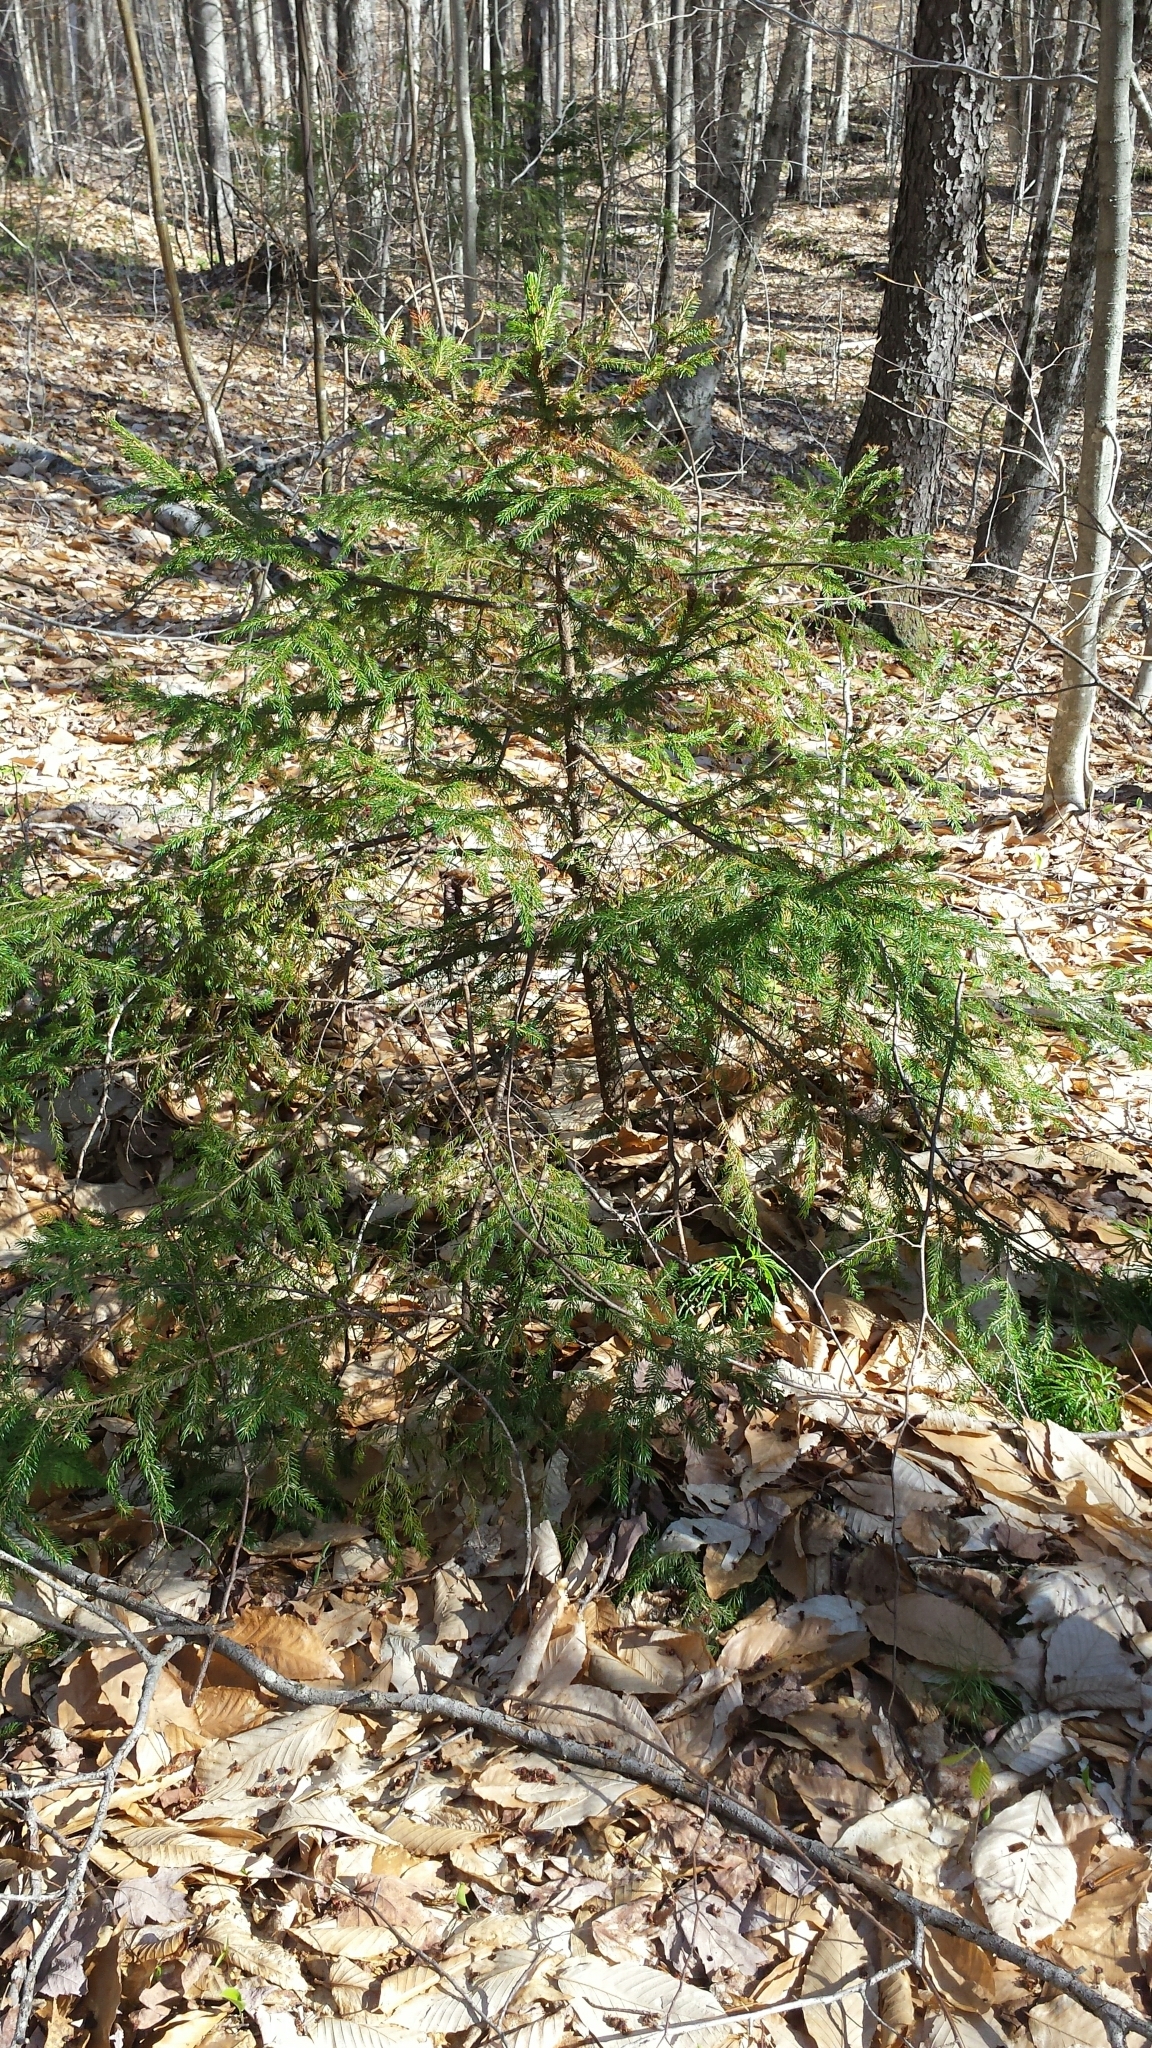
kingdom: Plantae
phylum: Tracheophyta
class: Pinopsida
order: Pinales
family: Pinaceae
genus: Picea
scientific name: Picea rubens
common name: Red spruce
